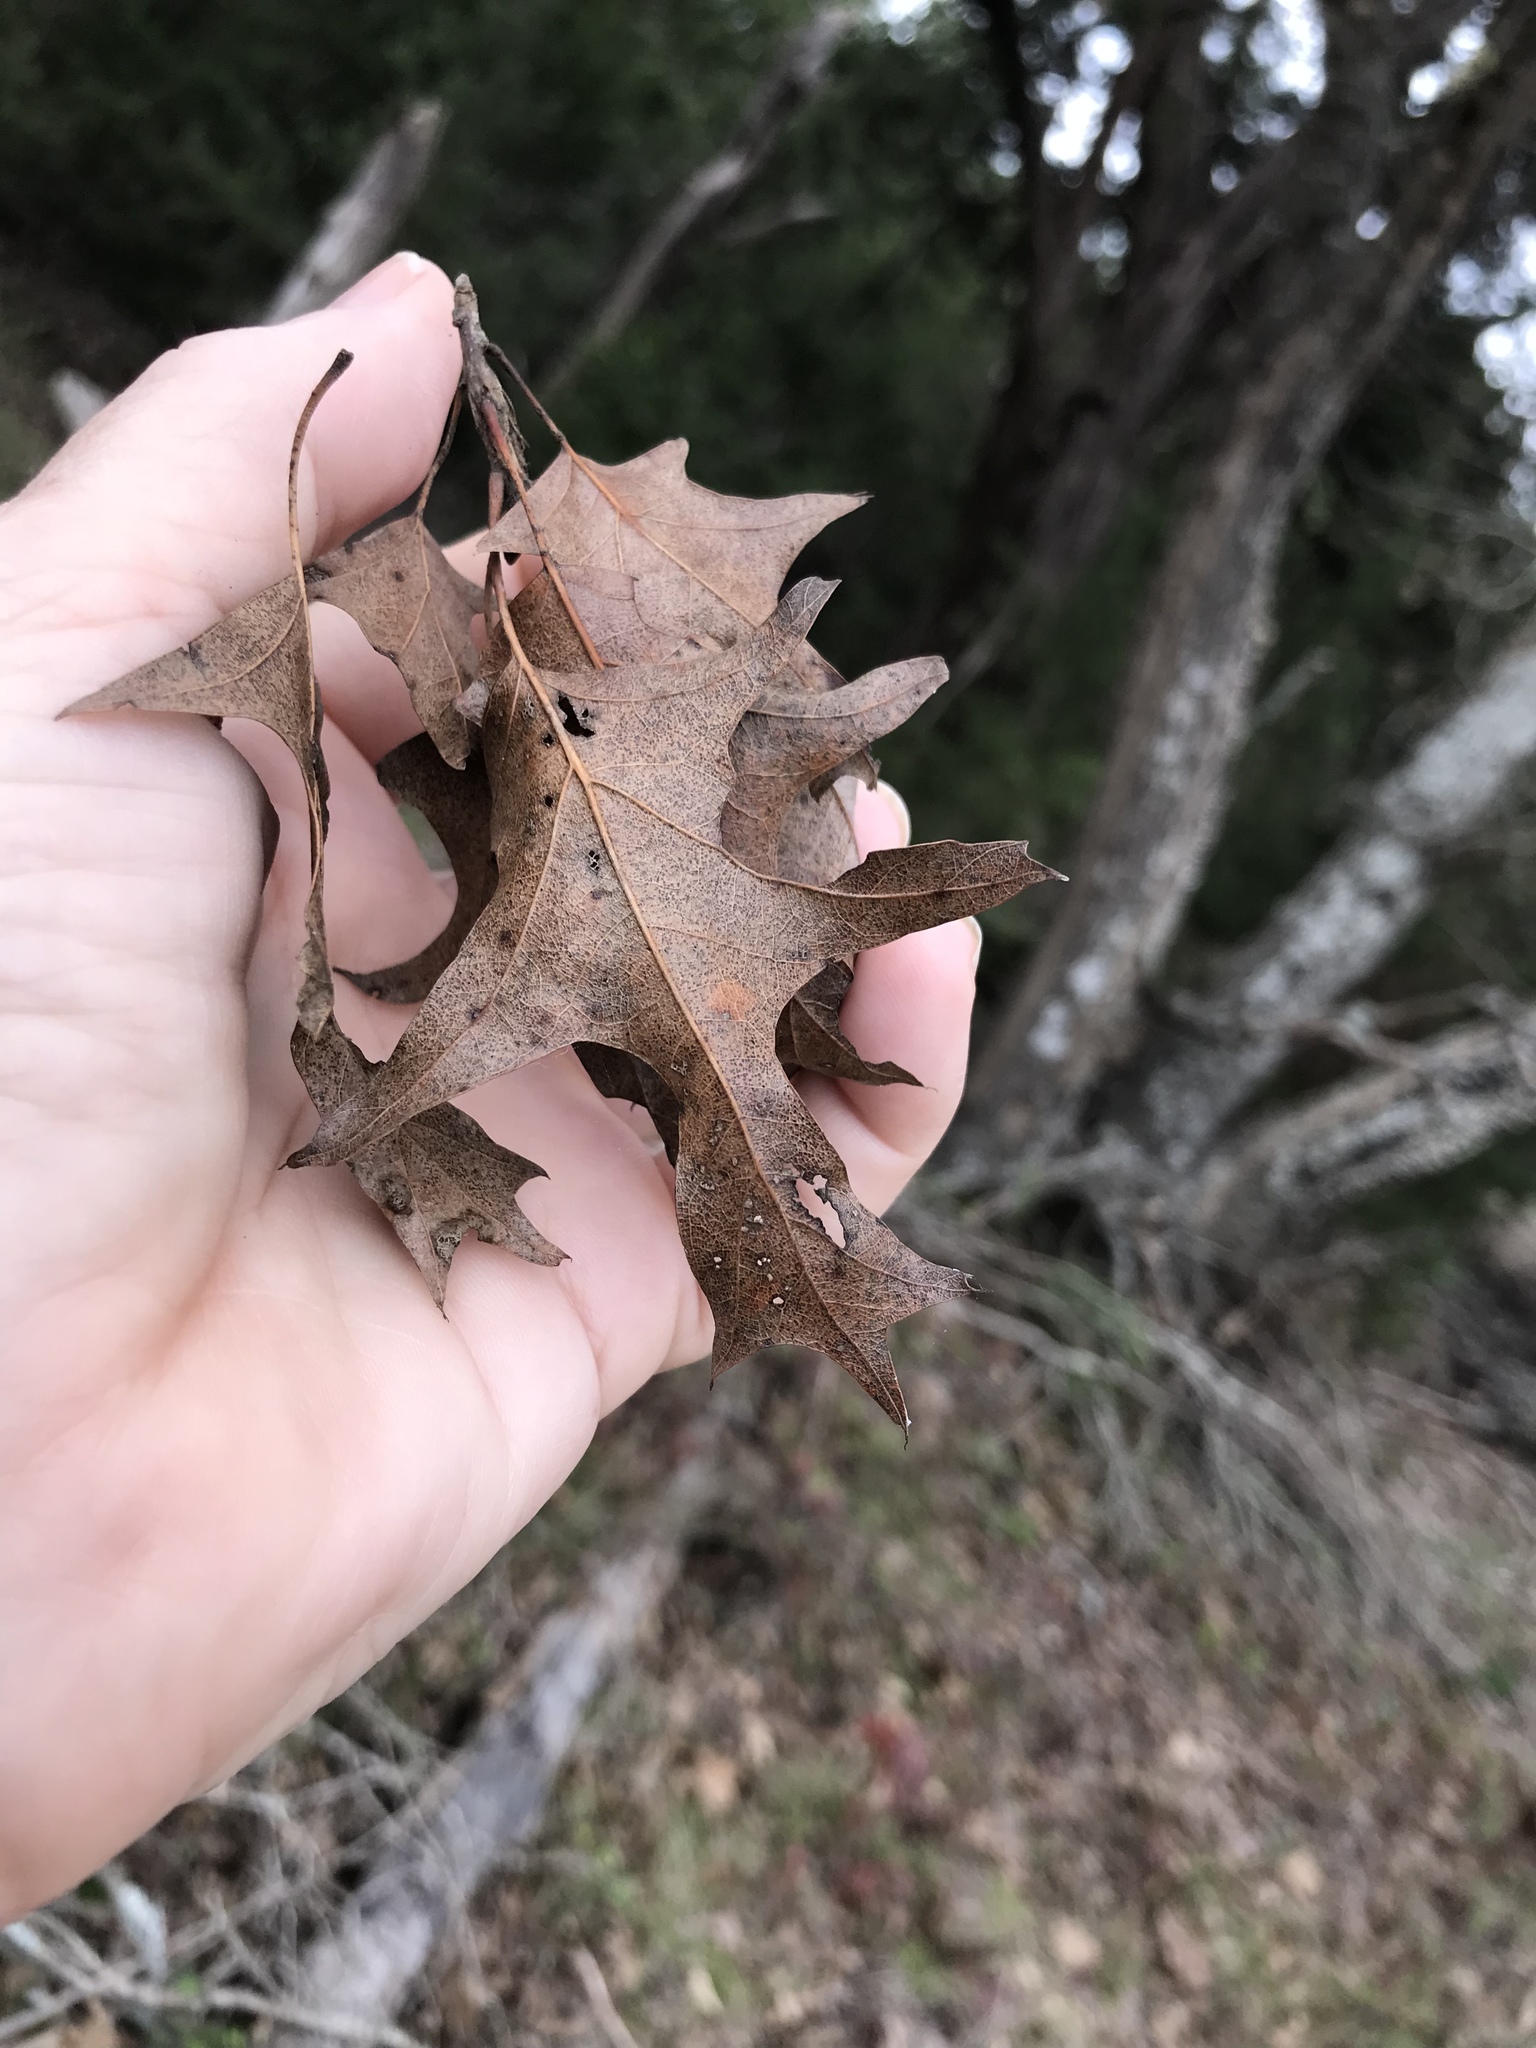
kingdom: Plantae
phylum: Tracheophyta
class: Magnoliopsida
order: Fagales
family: Fagaceae
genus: Quercus
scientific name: Quercus buckleyi
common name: Buckley oak
